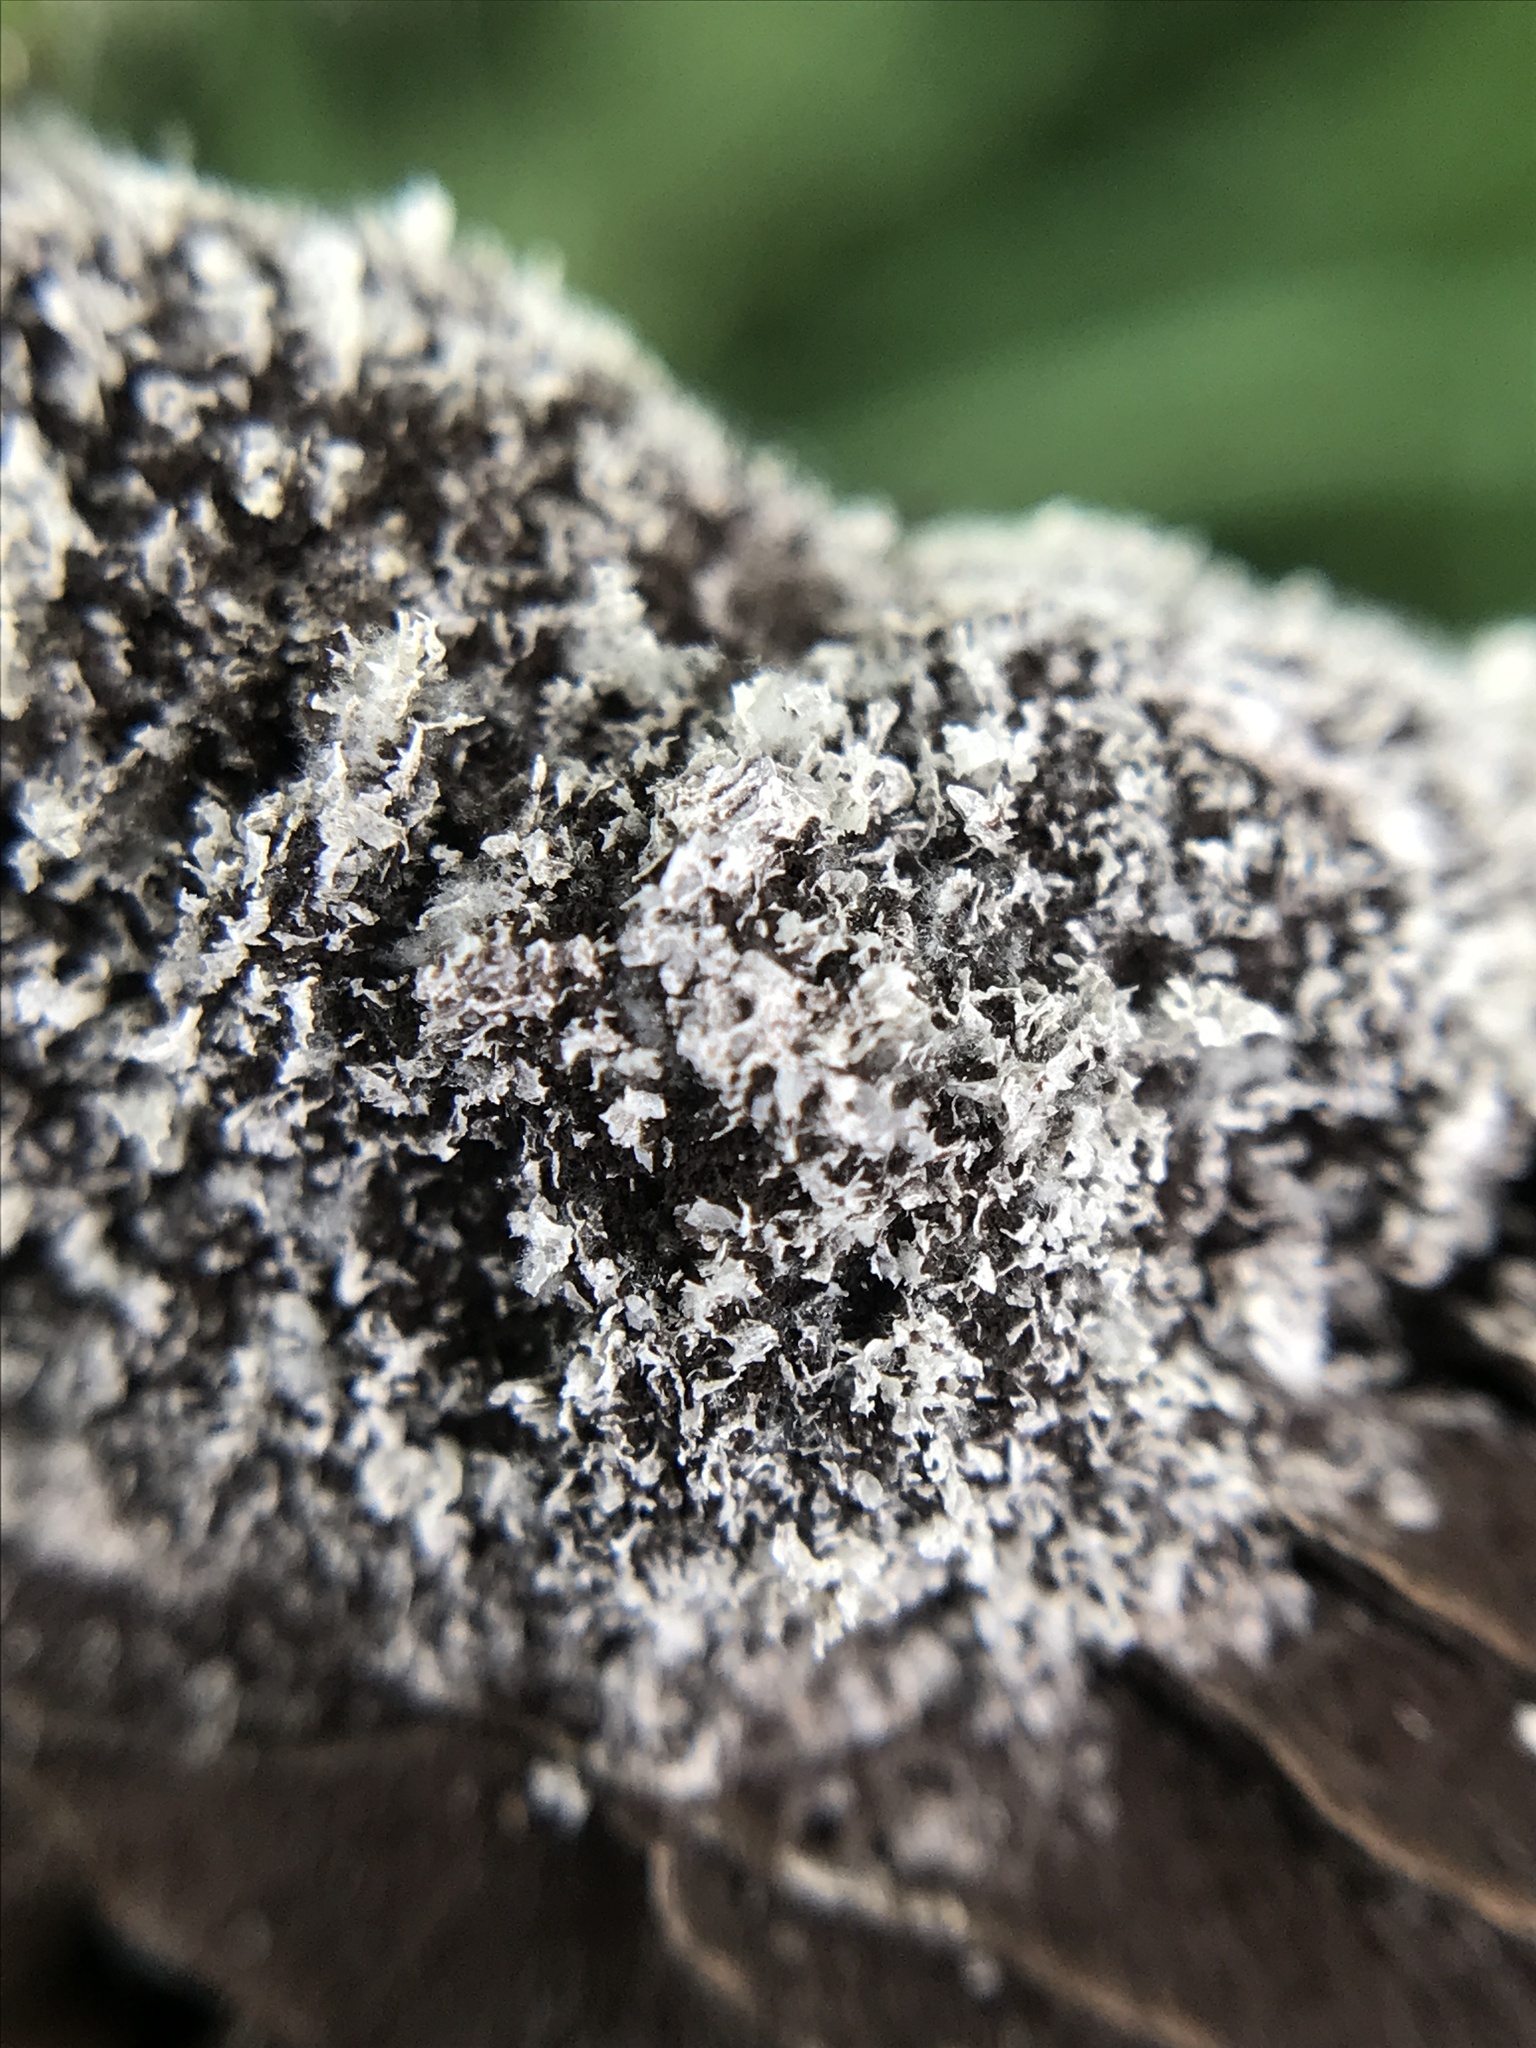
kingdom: Protozoa
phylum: Mycetozoa
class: Myxomycetes
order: Physarales
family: Physaraceae
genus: Fuligo
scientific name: Fuligo septica
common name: Dog vomit slime mold
